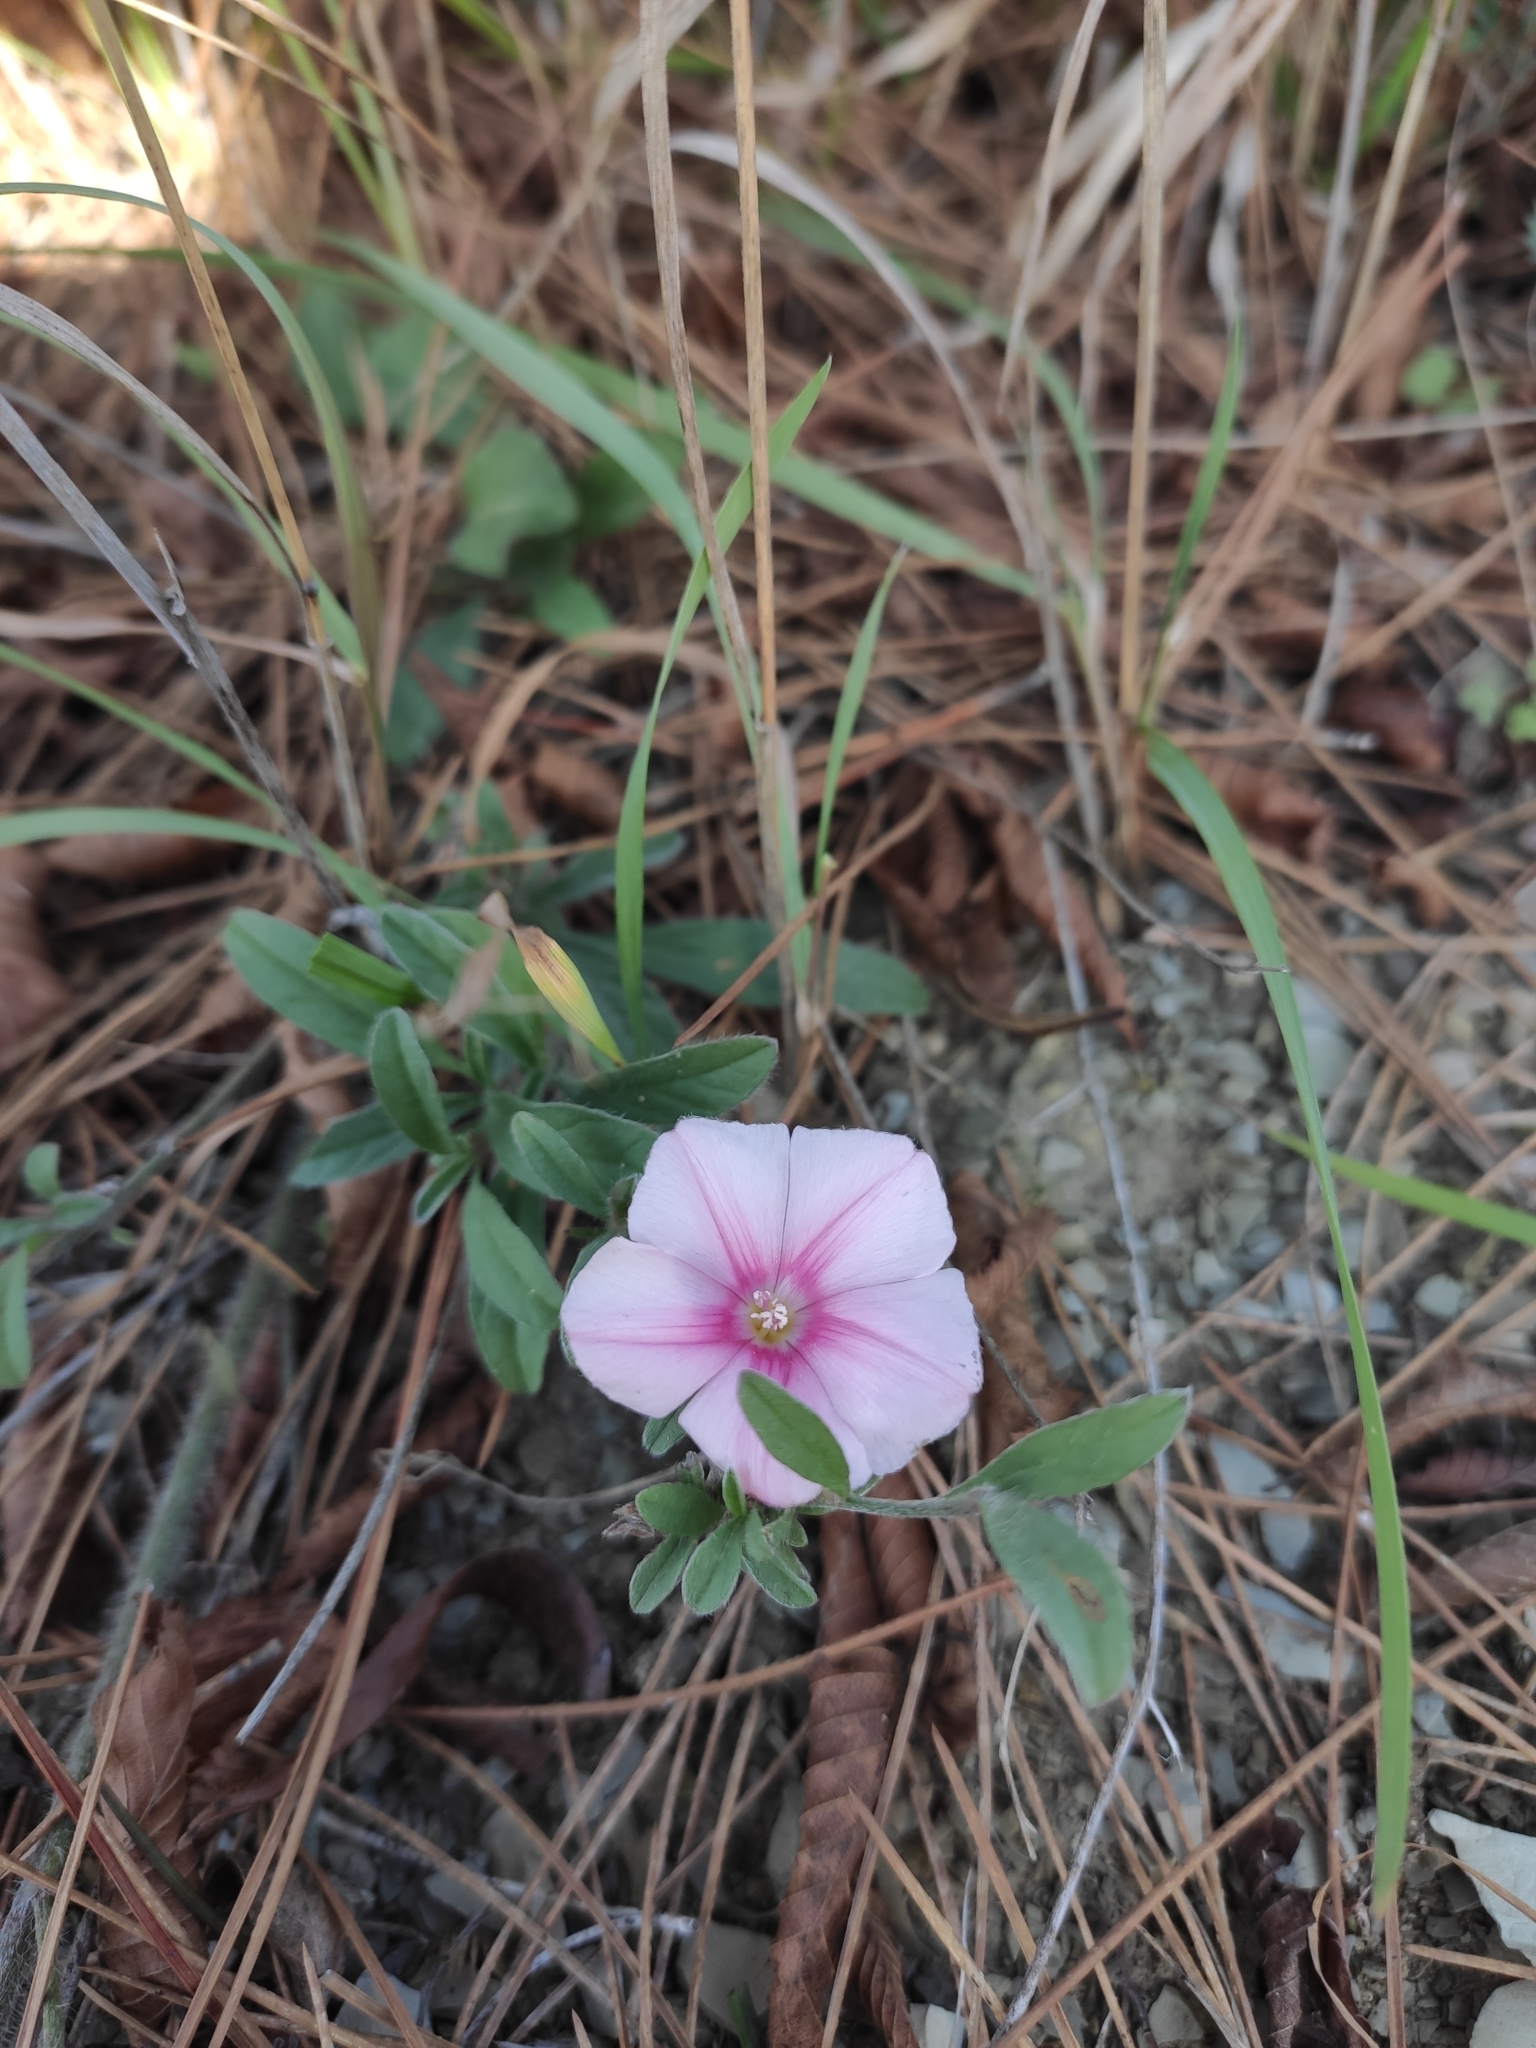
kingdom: Plantae
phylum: Tracheophyta
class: Magnoliopsida
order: Solanales
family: Convolvulaceae
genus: Convolvulus
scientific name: Convolvulus cantabrica
